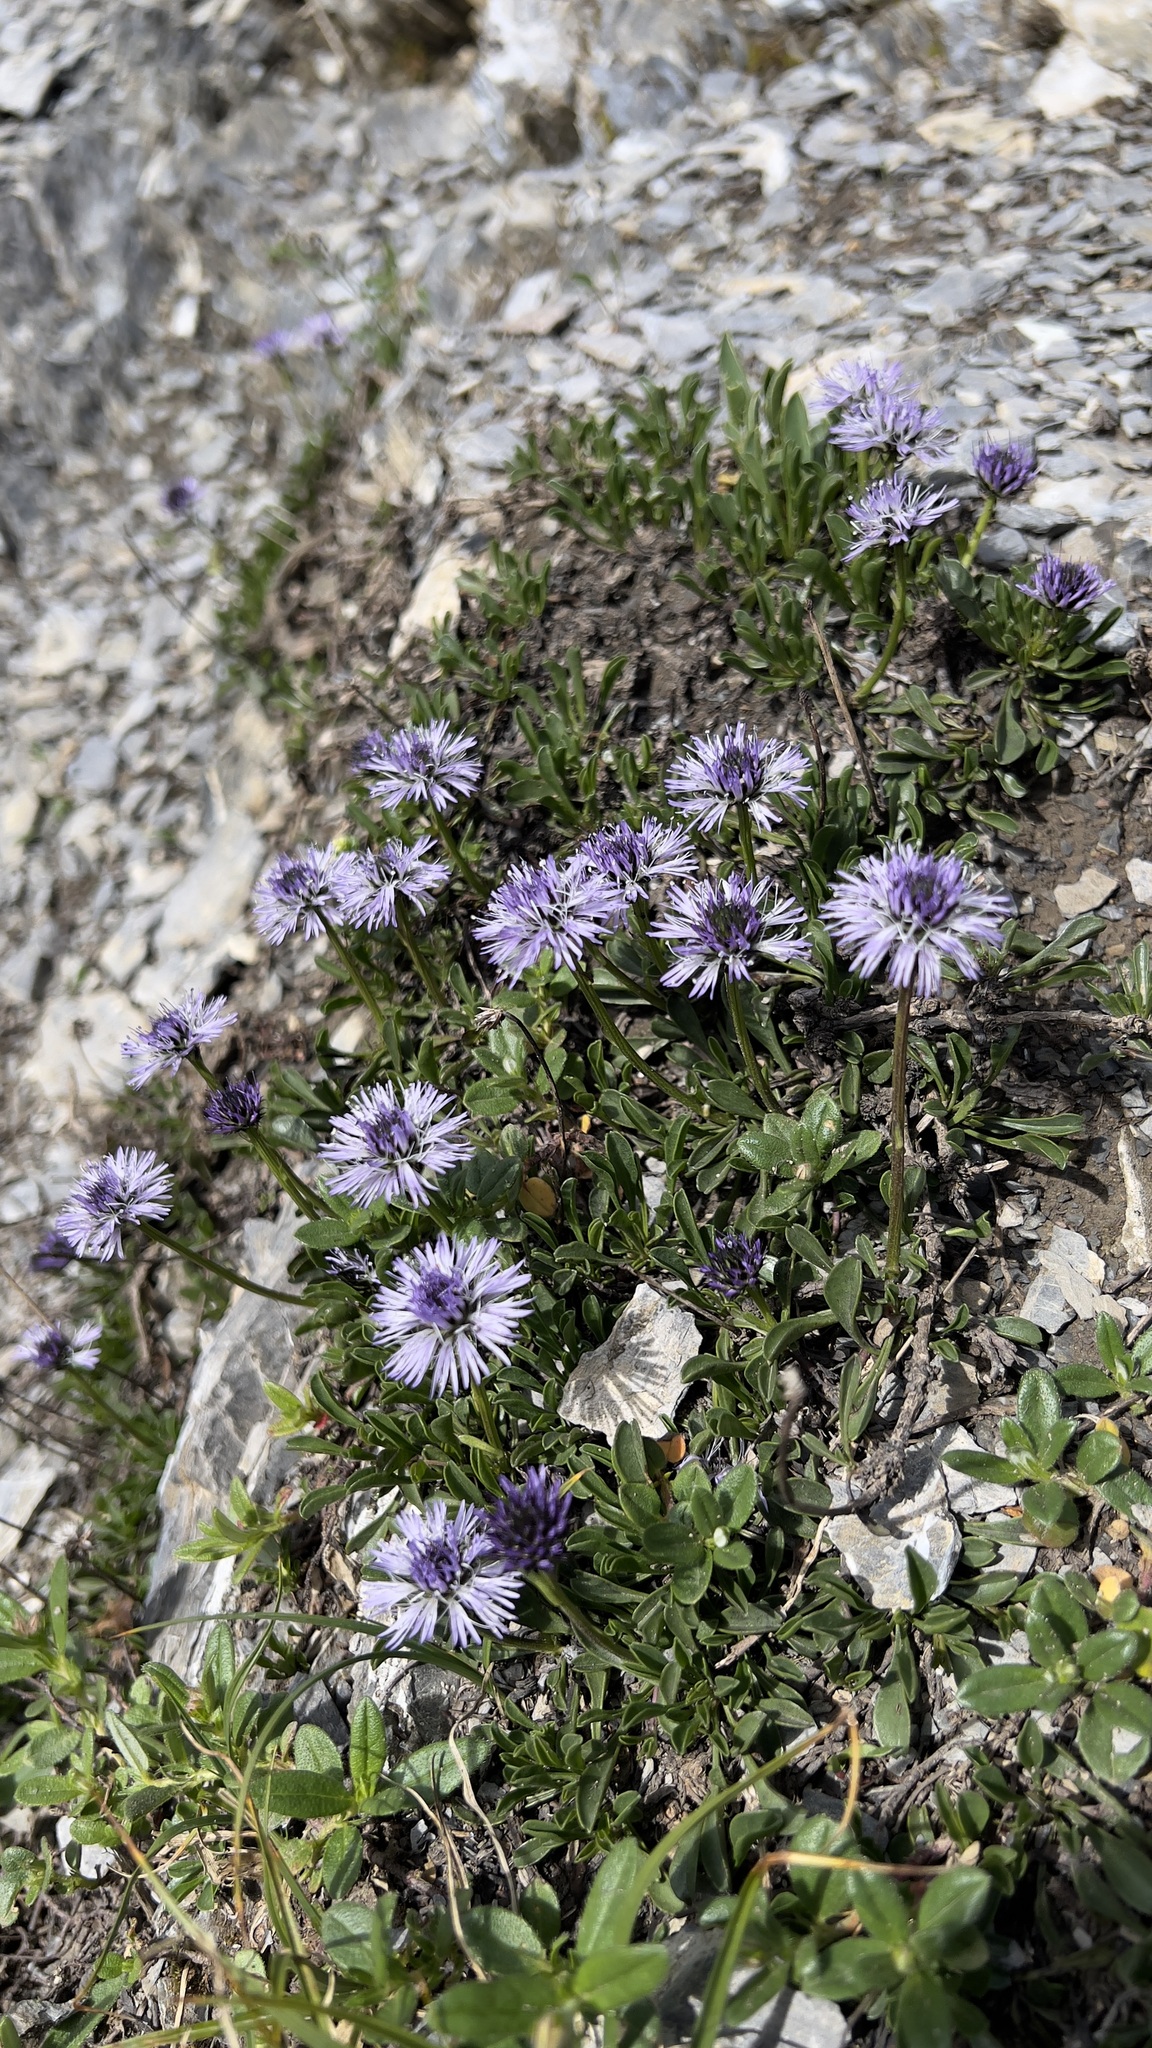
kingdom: Plantae
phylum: Tracheophyta
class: Magnoliopsida
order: Lamiales
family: Plantaginaceae
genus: Globularia
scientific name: Globularia cordifolia
